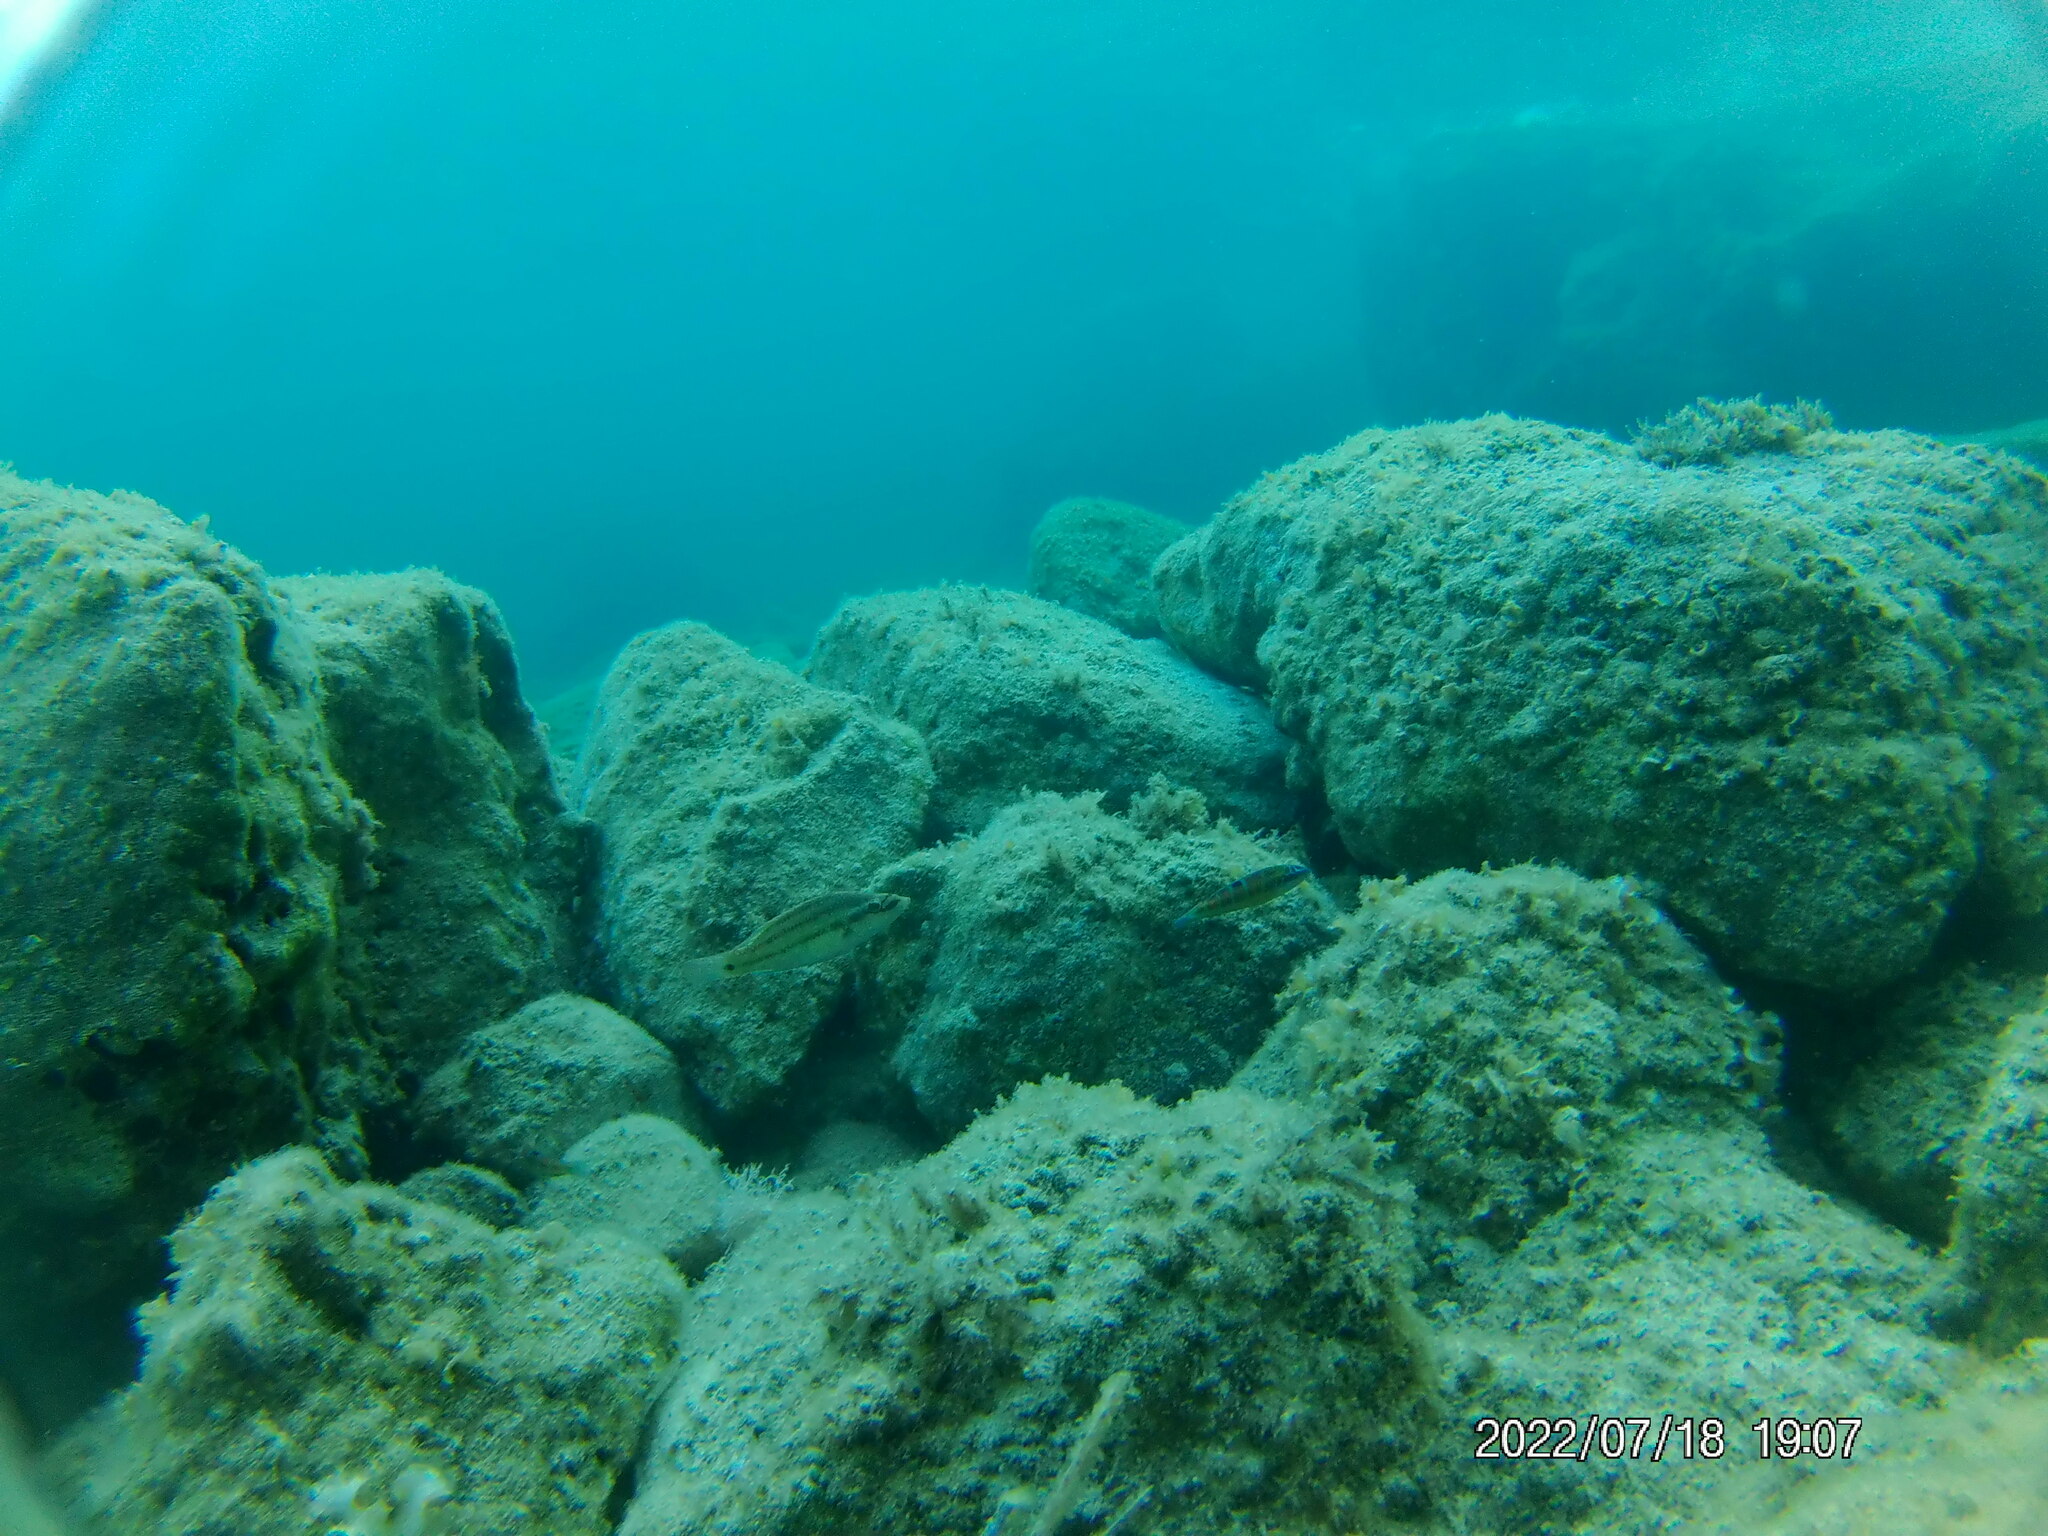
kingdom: Animalia
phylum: Chordata
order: Perciformes
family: Labridae
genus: Symphodus
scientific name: Symphodus tinca
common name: Peacock wrasse
